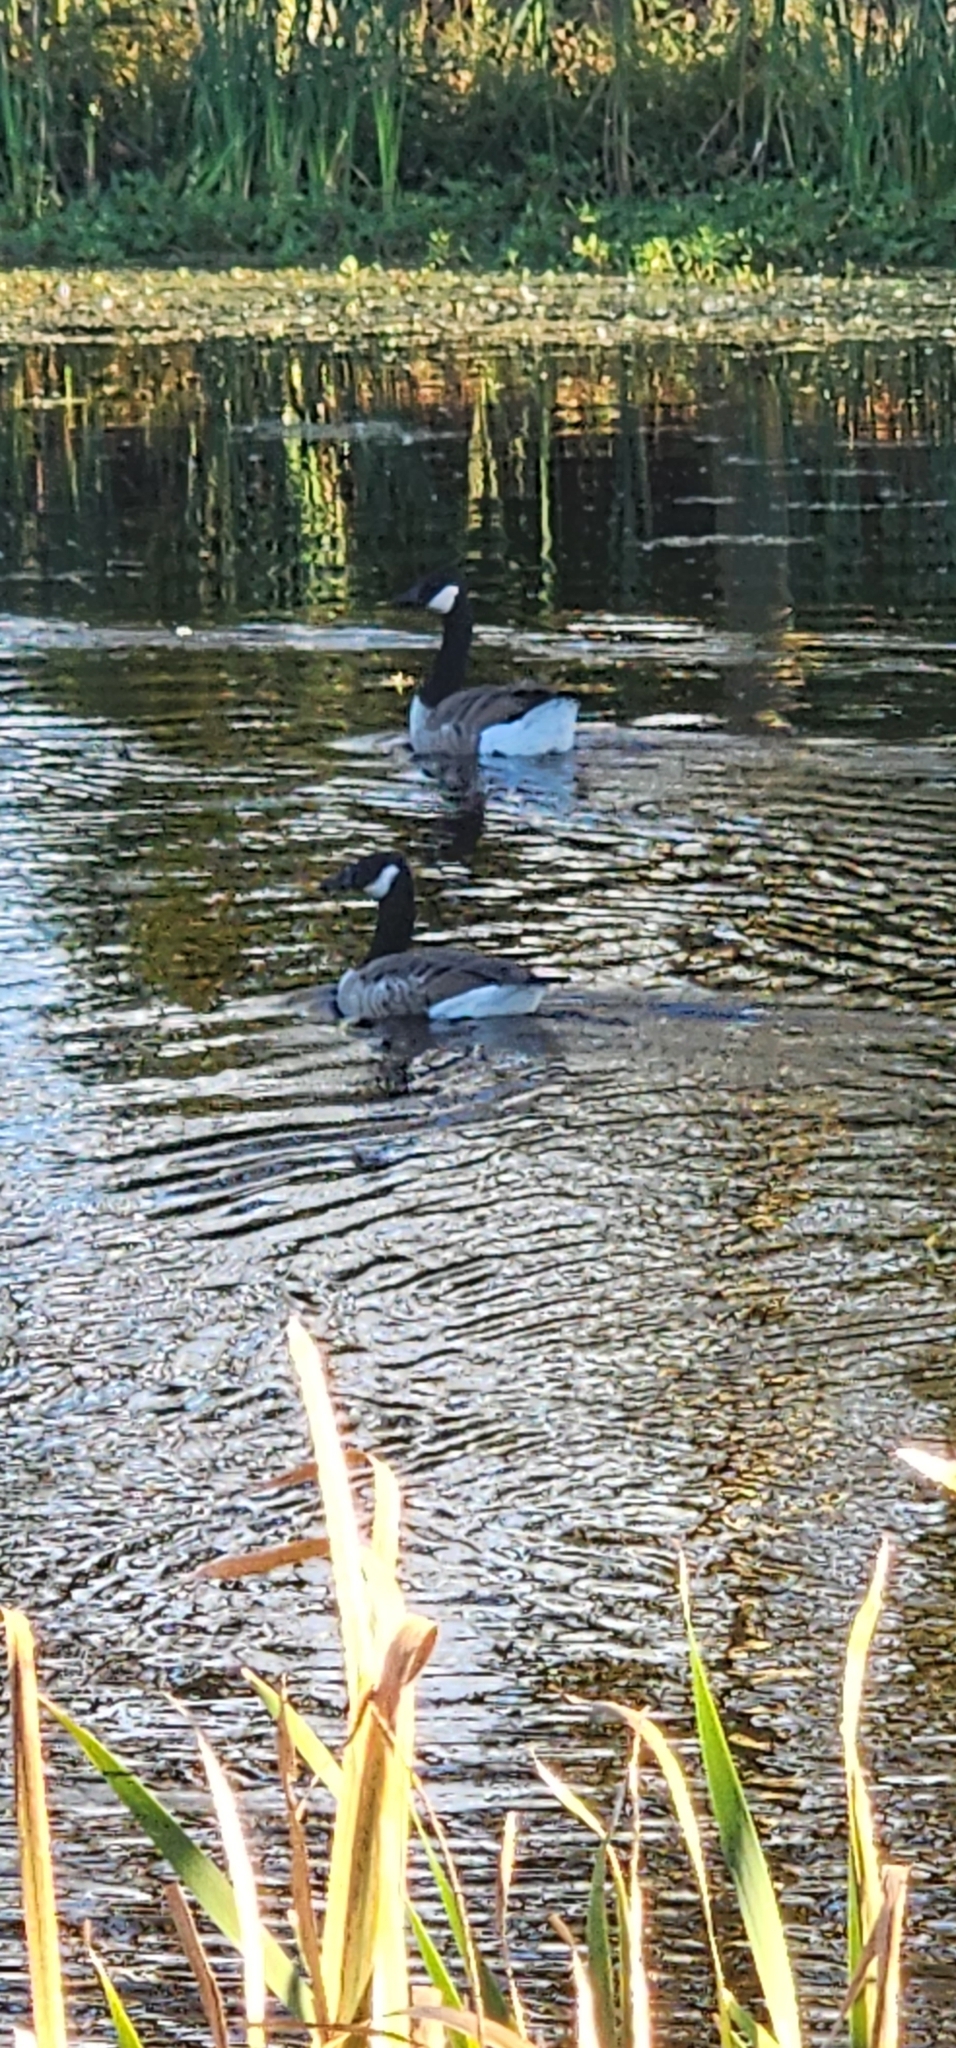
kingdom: Animalia
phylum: Chordata
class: Aves
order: Anseriformes
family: Anatidae
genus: Branta
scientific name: Branta canadensis
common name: Canada goose
